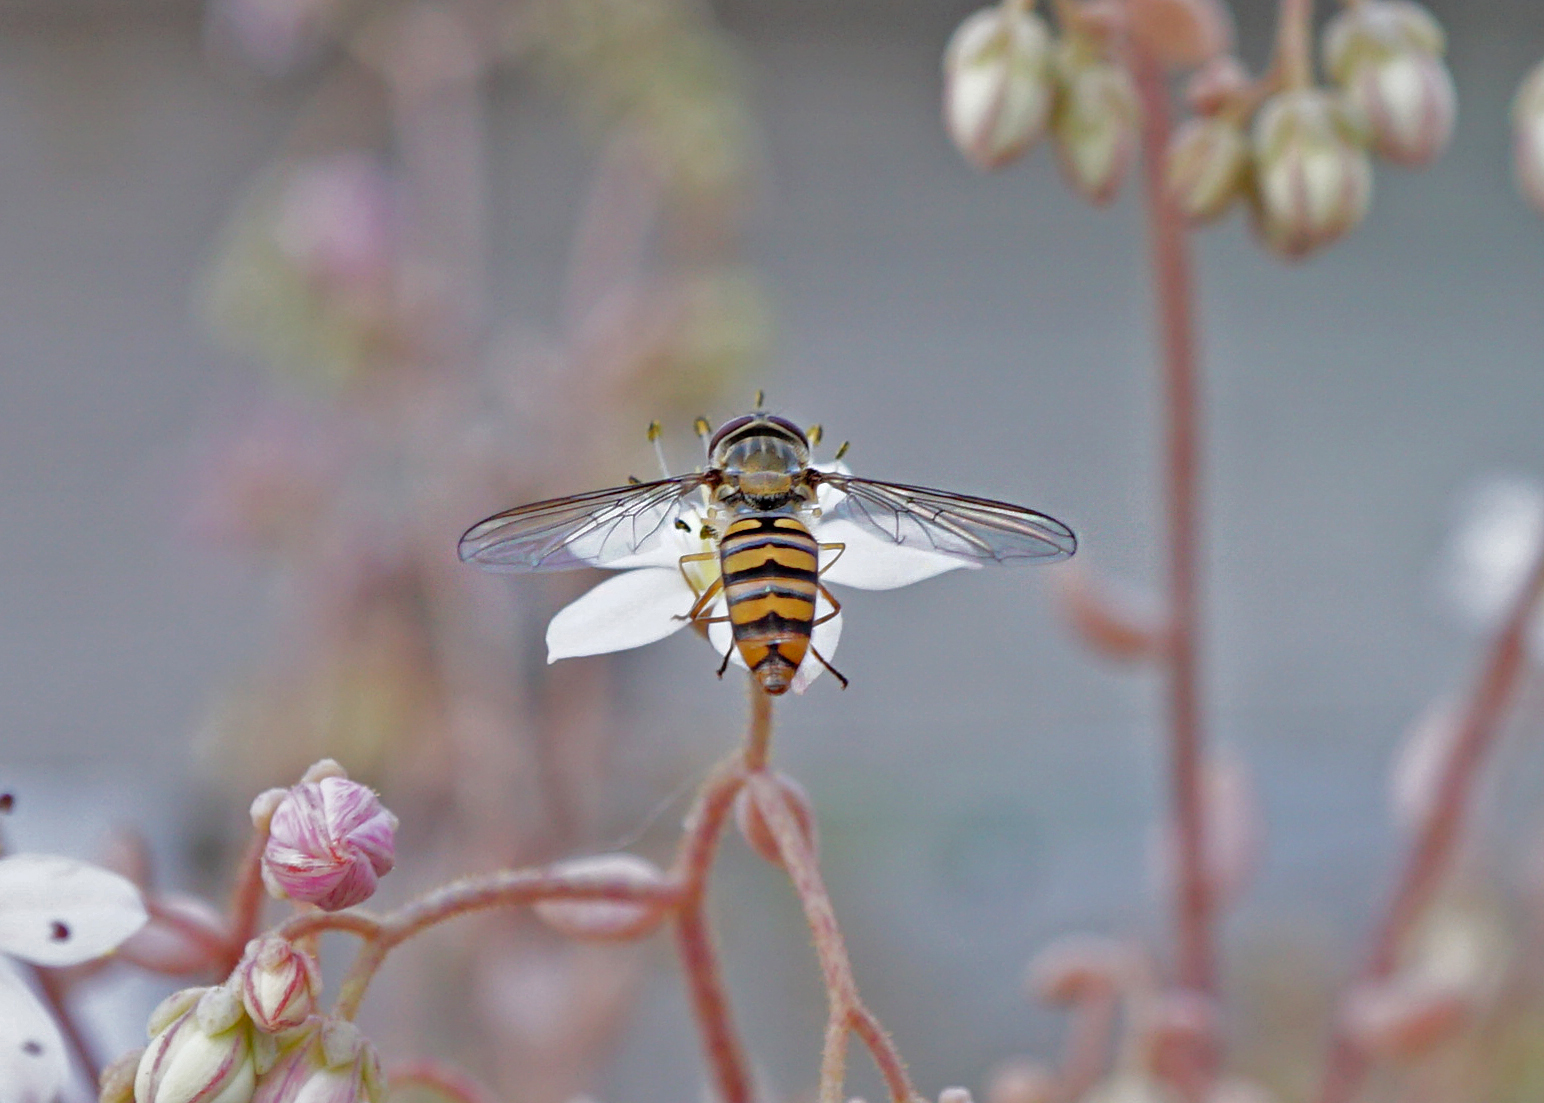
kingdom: Animalia
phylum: Arthropoda
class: Insecta
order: Diptera
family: Syrphidae
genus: Episyrphus
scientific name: Episyrphus balteatus
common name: Marmalade hoverfly
